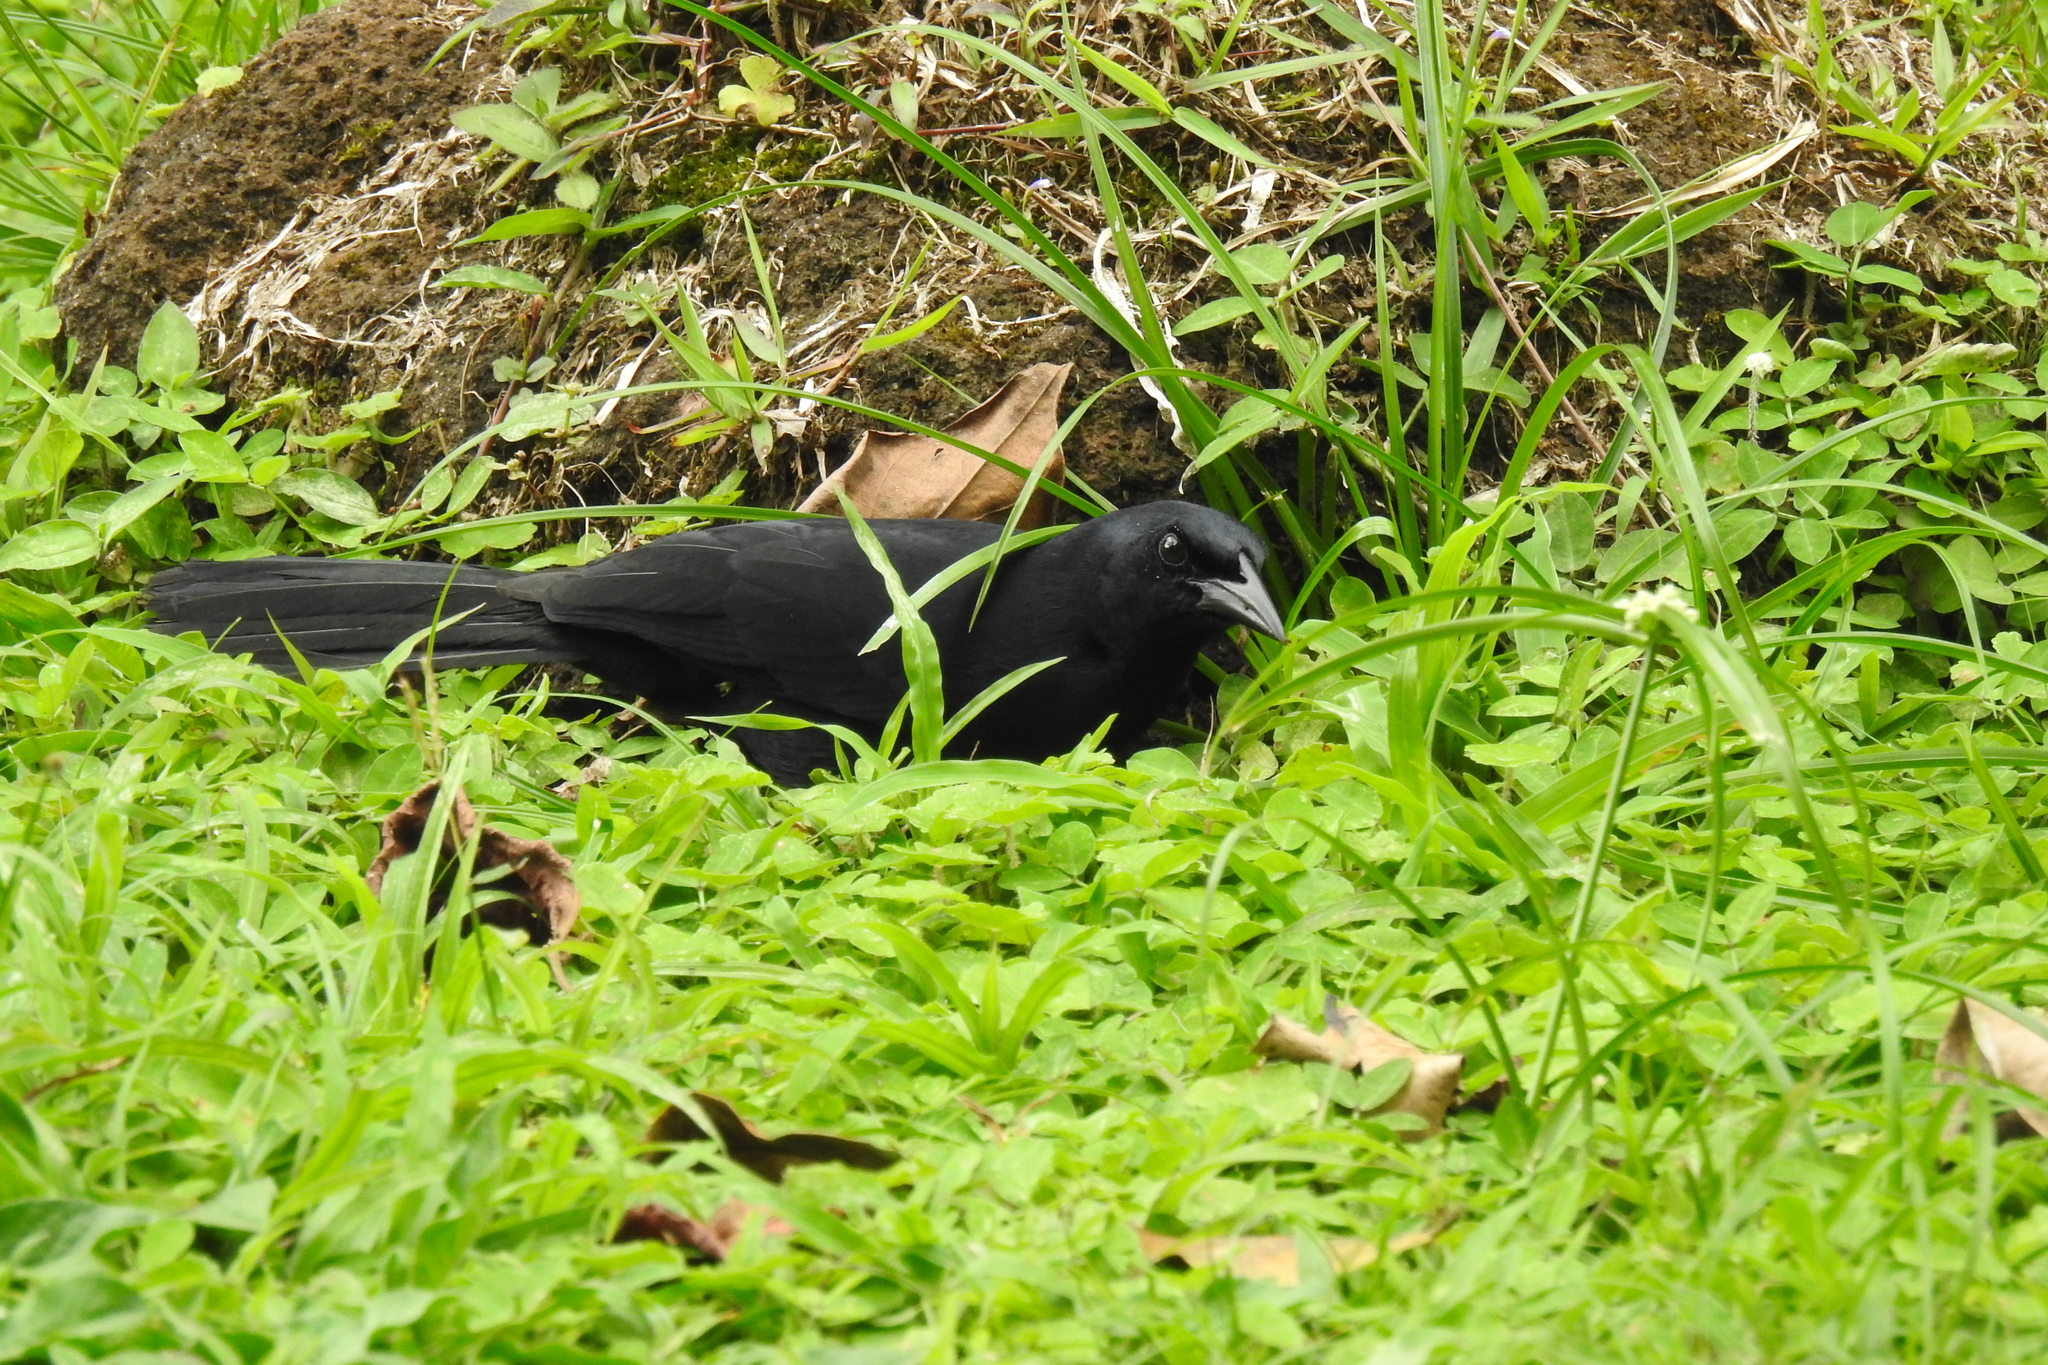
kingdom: Animalia
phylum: Chordata
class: Aves
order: Passeriformes
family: Icteridae
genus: Dives
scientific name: Dives dives
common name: Melodious blackbird
